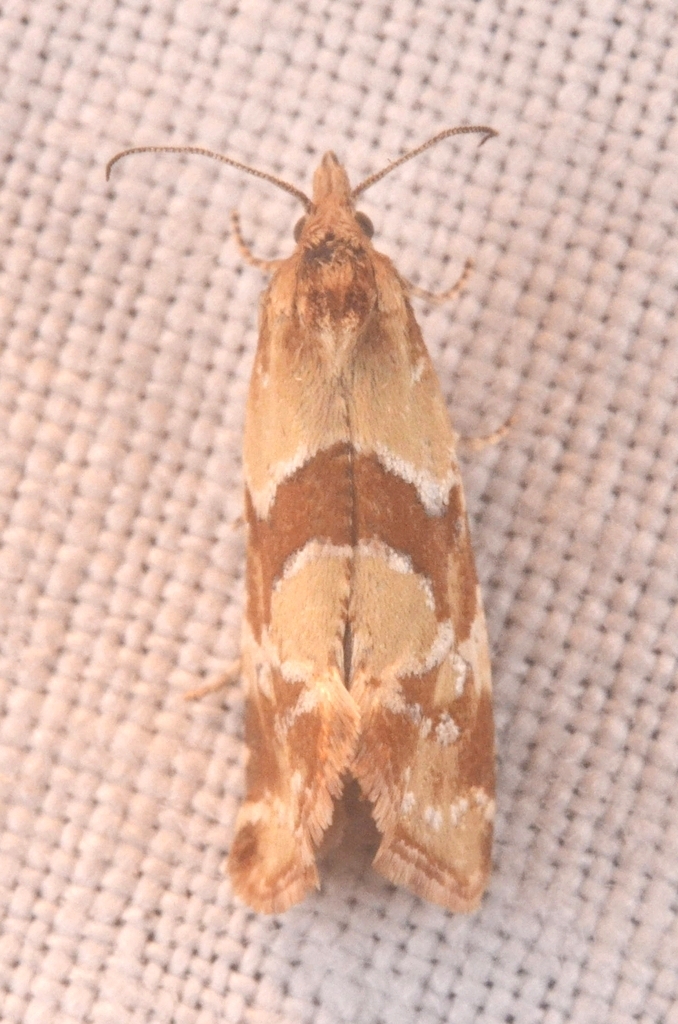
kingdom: Animalia
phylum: Arthropoda
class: Insecta
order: Lepidoptera
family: Tortricidae
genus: Aethes
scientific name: Aethes hartmanniana
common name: Scabious conch
